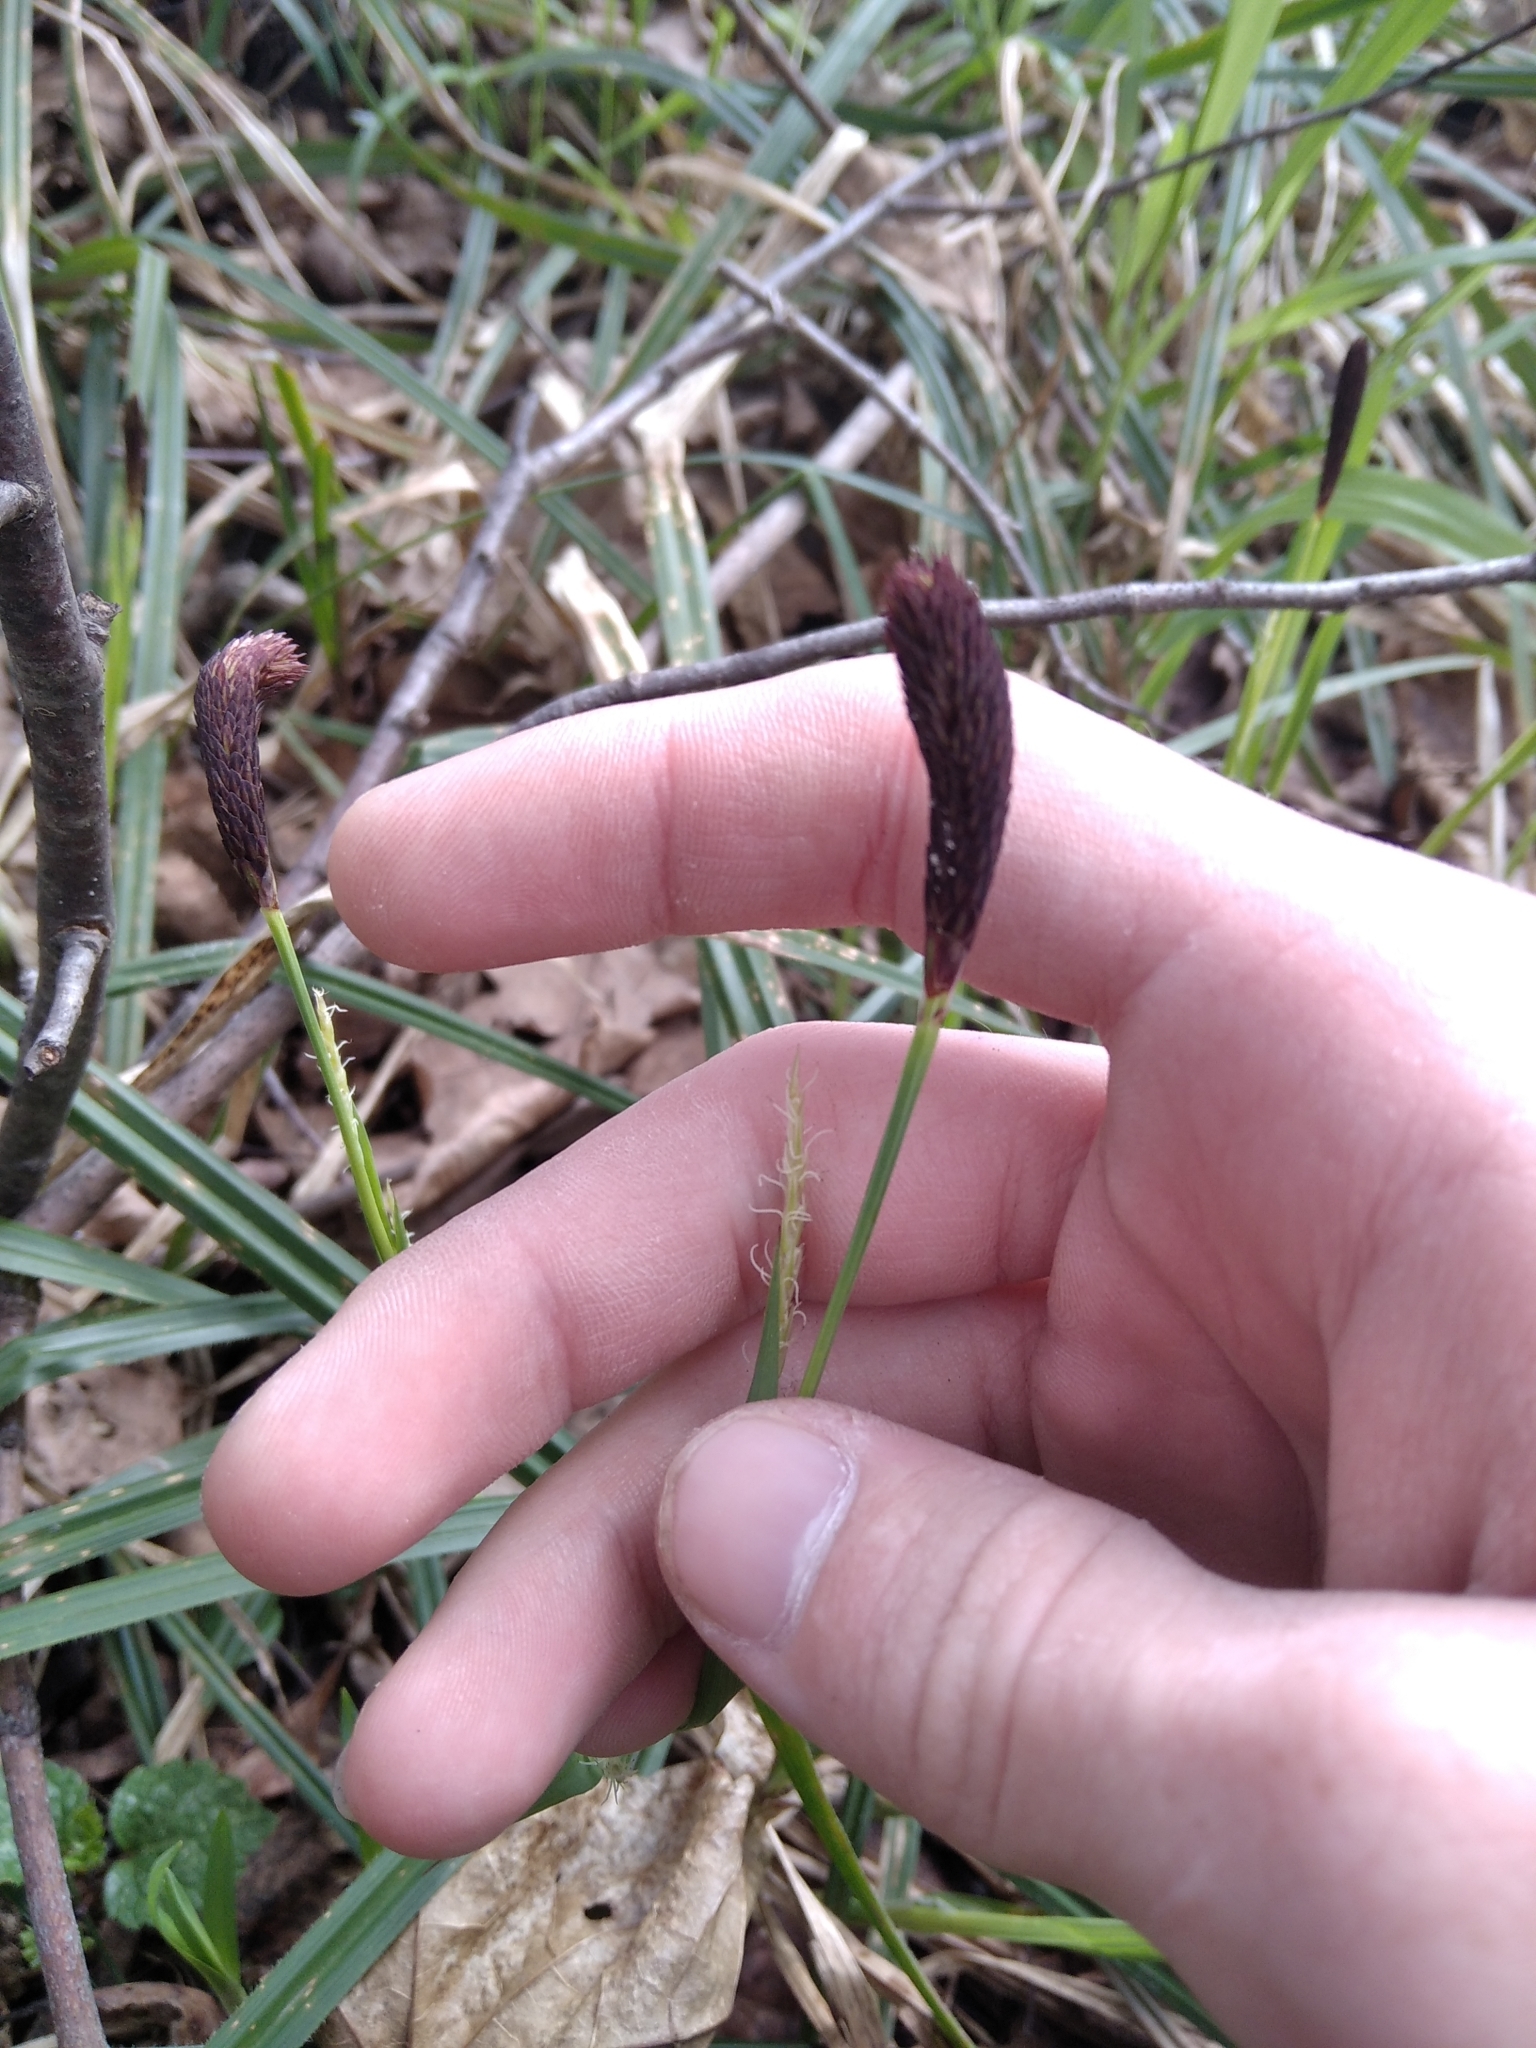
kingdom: Plantae
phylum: Tracheophyta
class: Liliopsida
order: Poales
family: Cyperaceae
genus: Carex
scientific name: Carex pilosa
